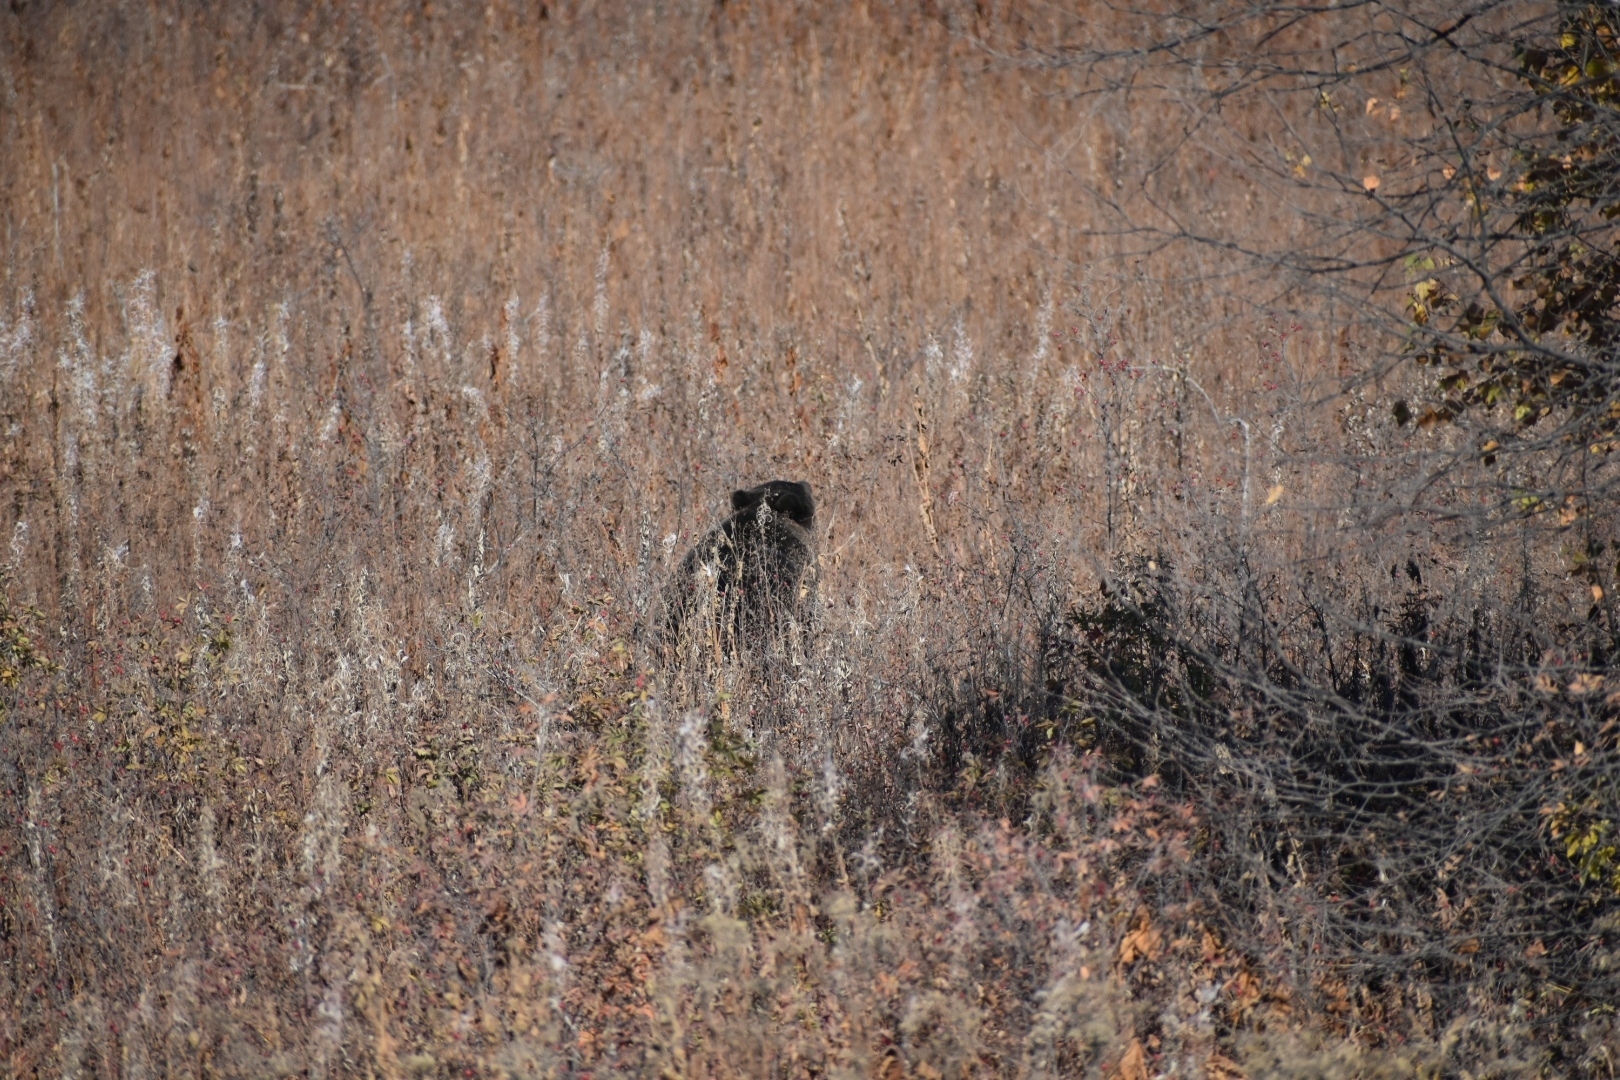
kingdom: Animalia
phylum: Chordata
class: Mammalia
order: Carnivora
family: Ursidae
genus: Ursus
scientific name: Ursus arctos
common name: Brown bear
